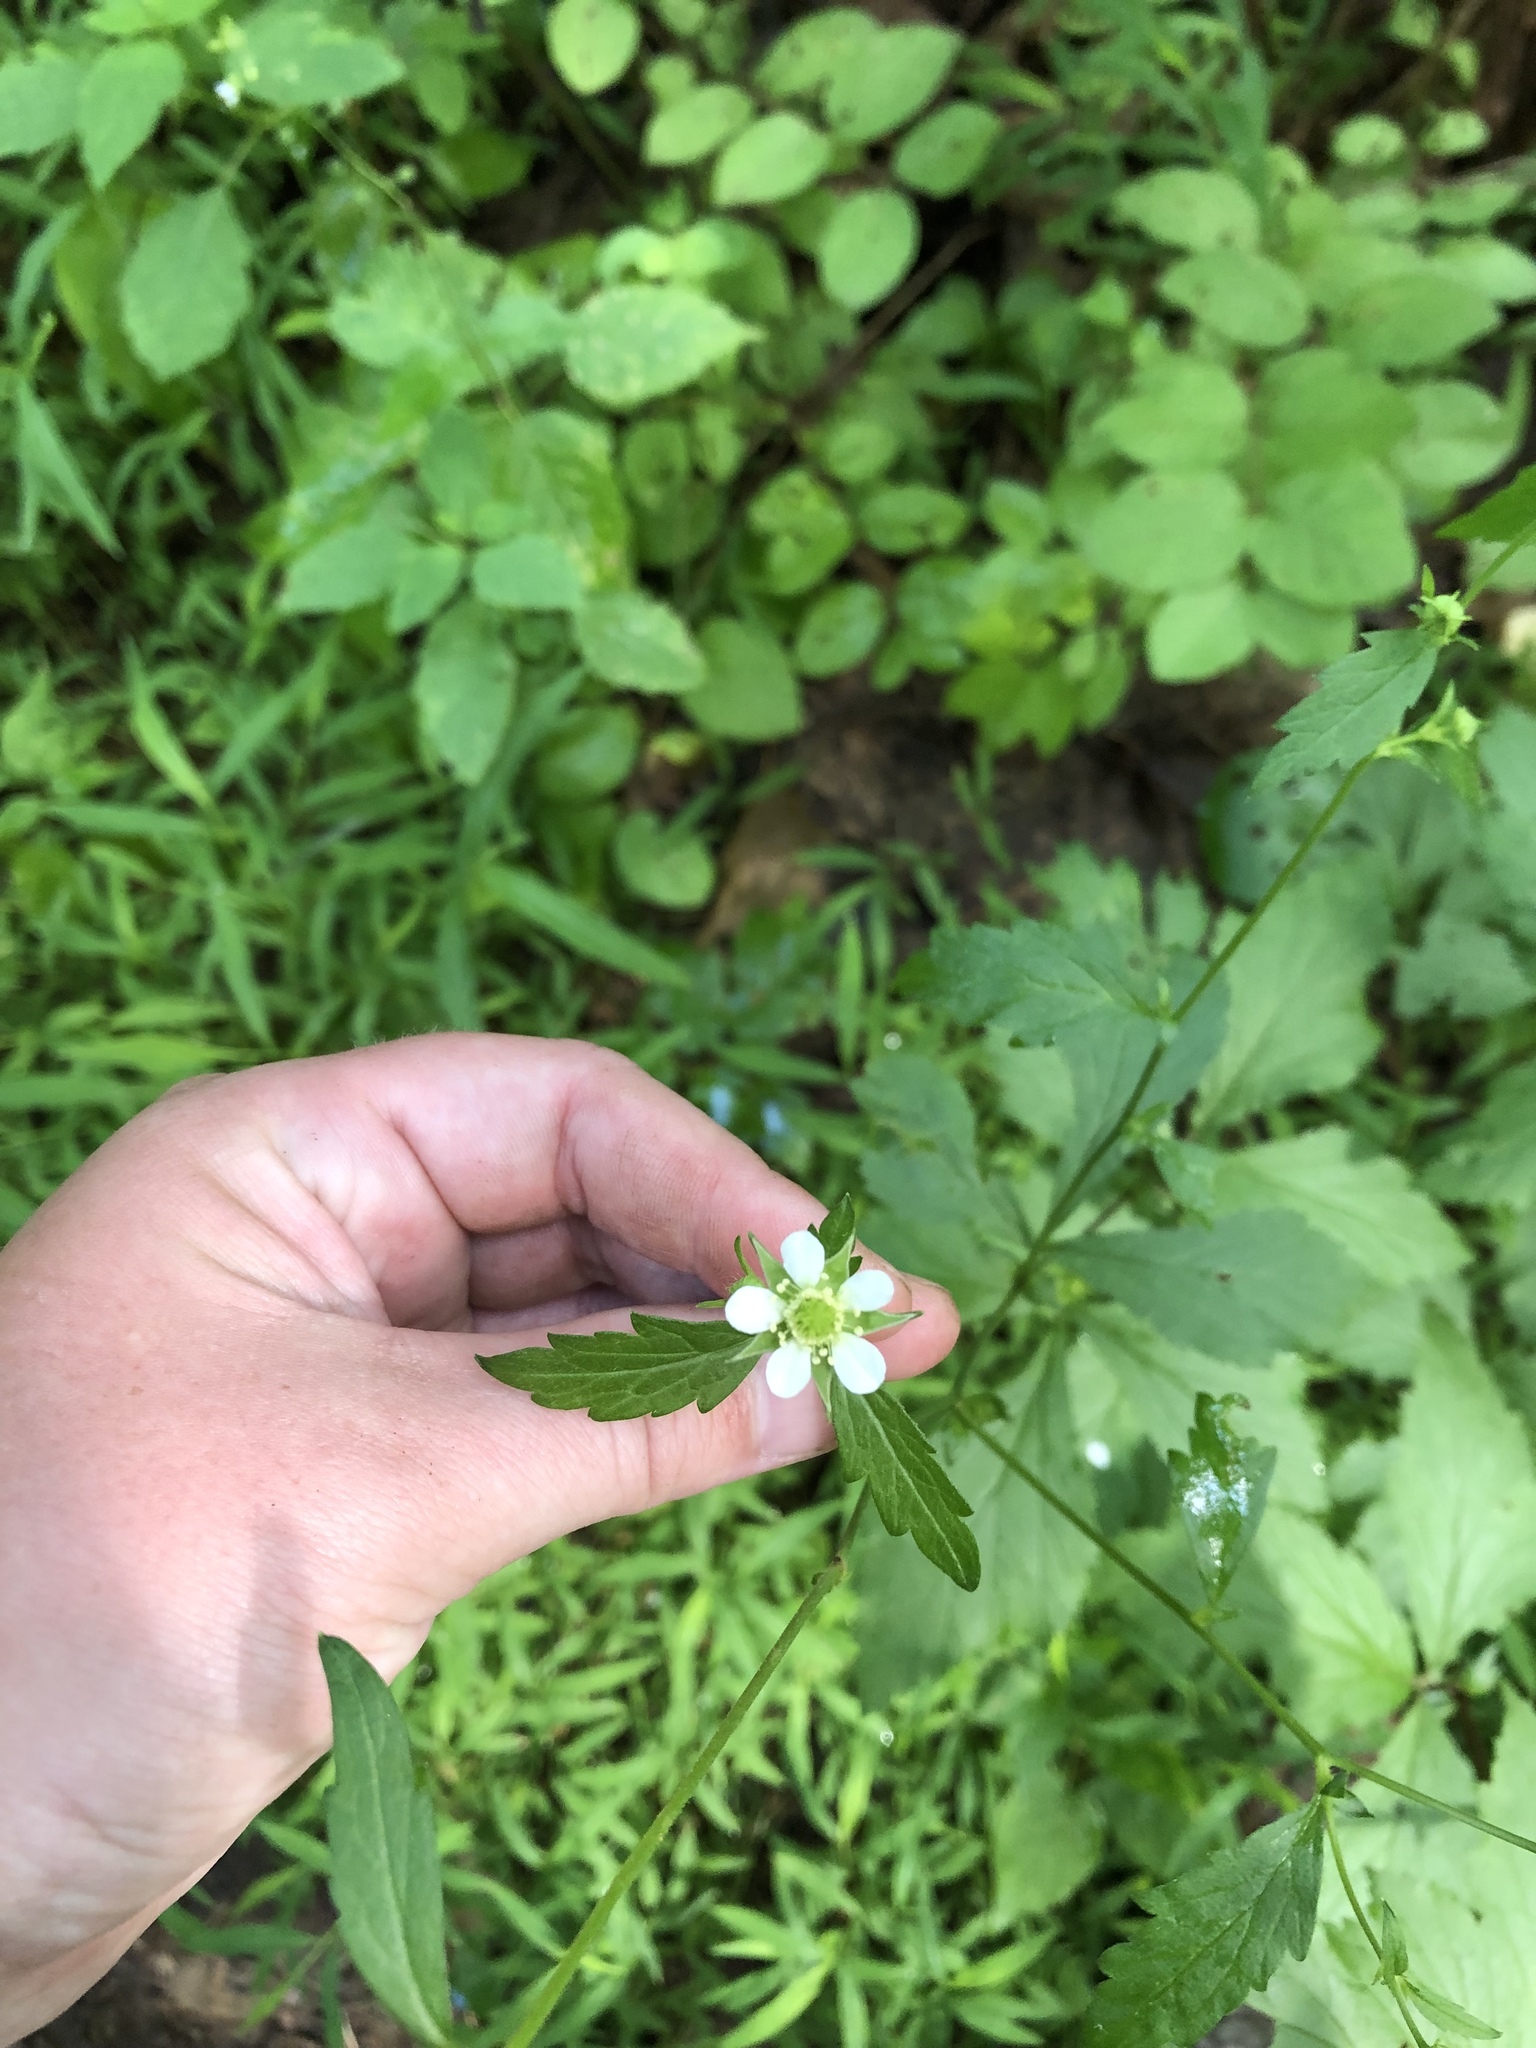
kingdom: Plantae
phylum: Tracheophyta
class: Magnoliopsida
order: Rosales
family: Rosaceae
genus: Geum
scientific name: Geum canadense
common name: White avens
